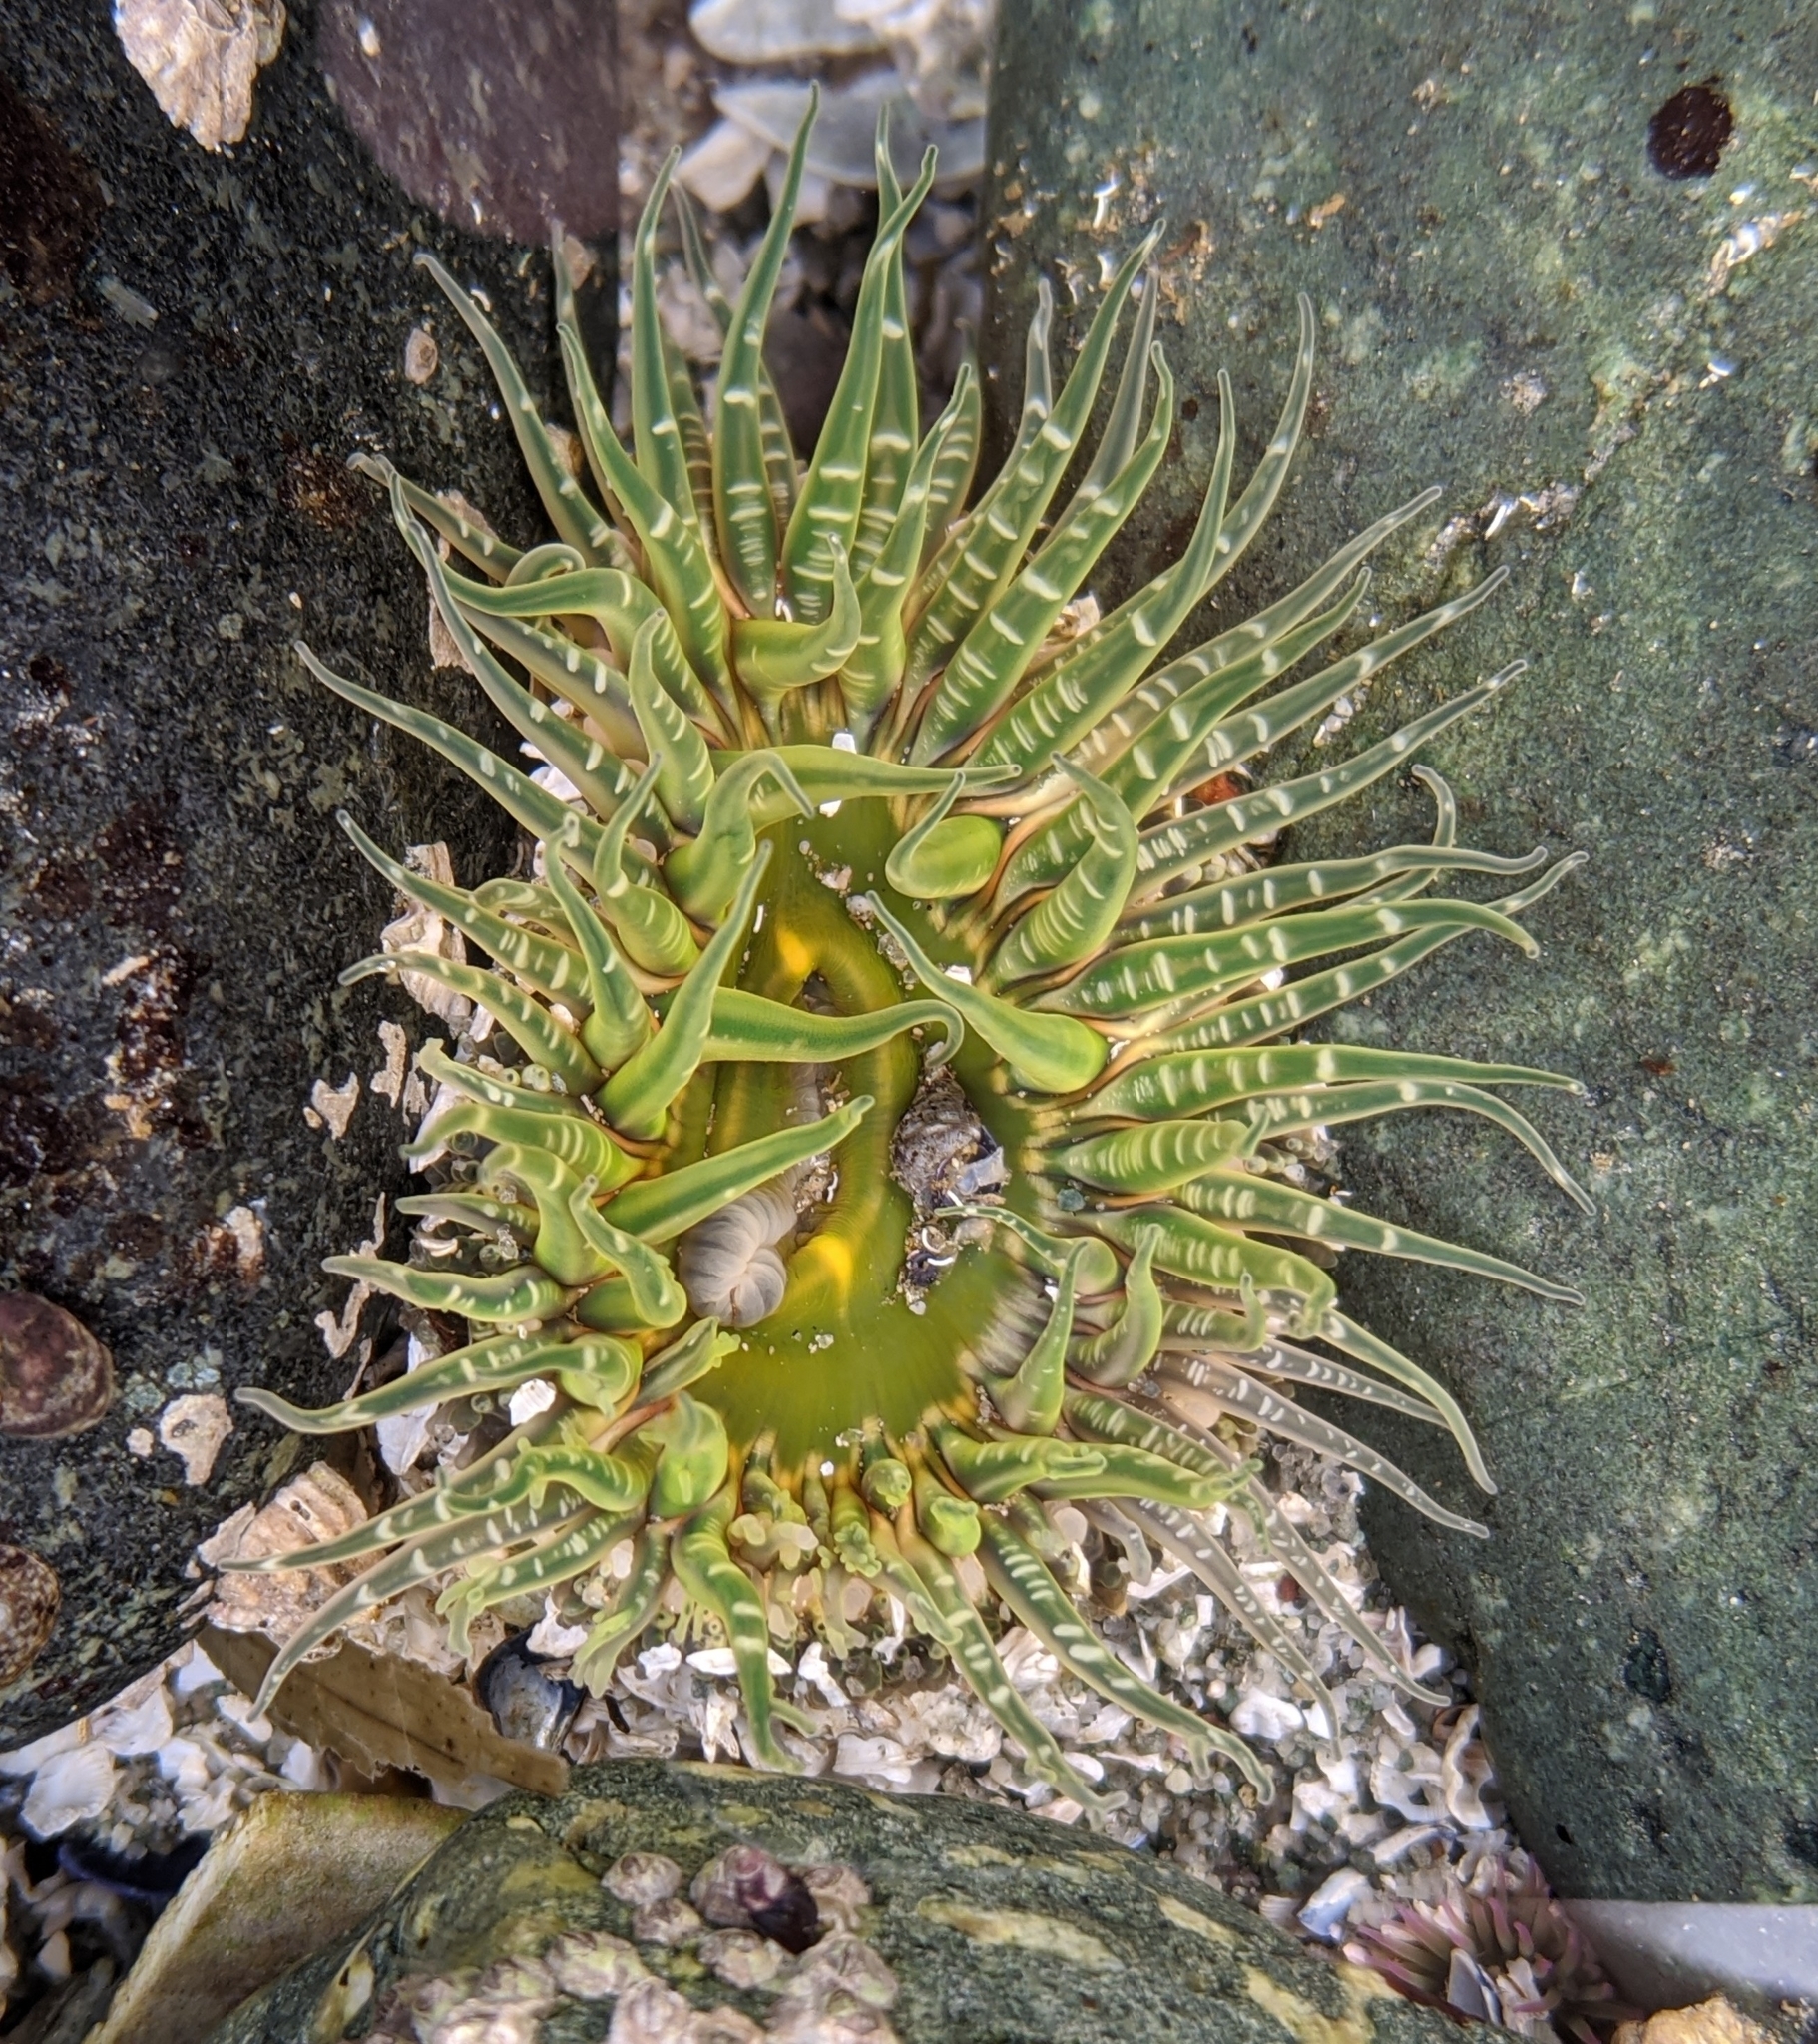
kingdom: Animalia
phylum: Cnidaria
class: Anthozoa
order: Actiniaria
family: Actiniidae
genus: Anthopleura
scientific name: Anthopleura artemisia
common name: Buried sea anemone
